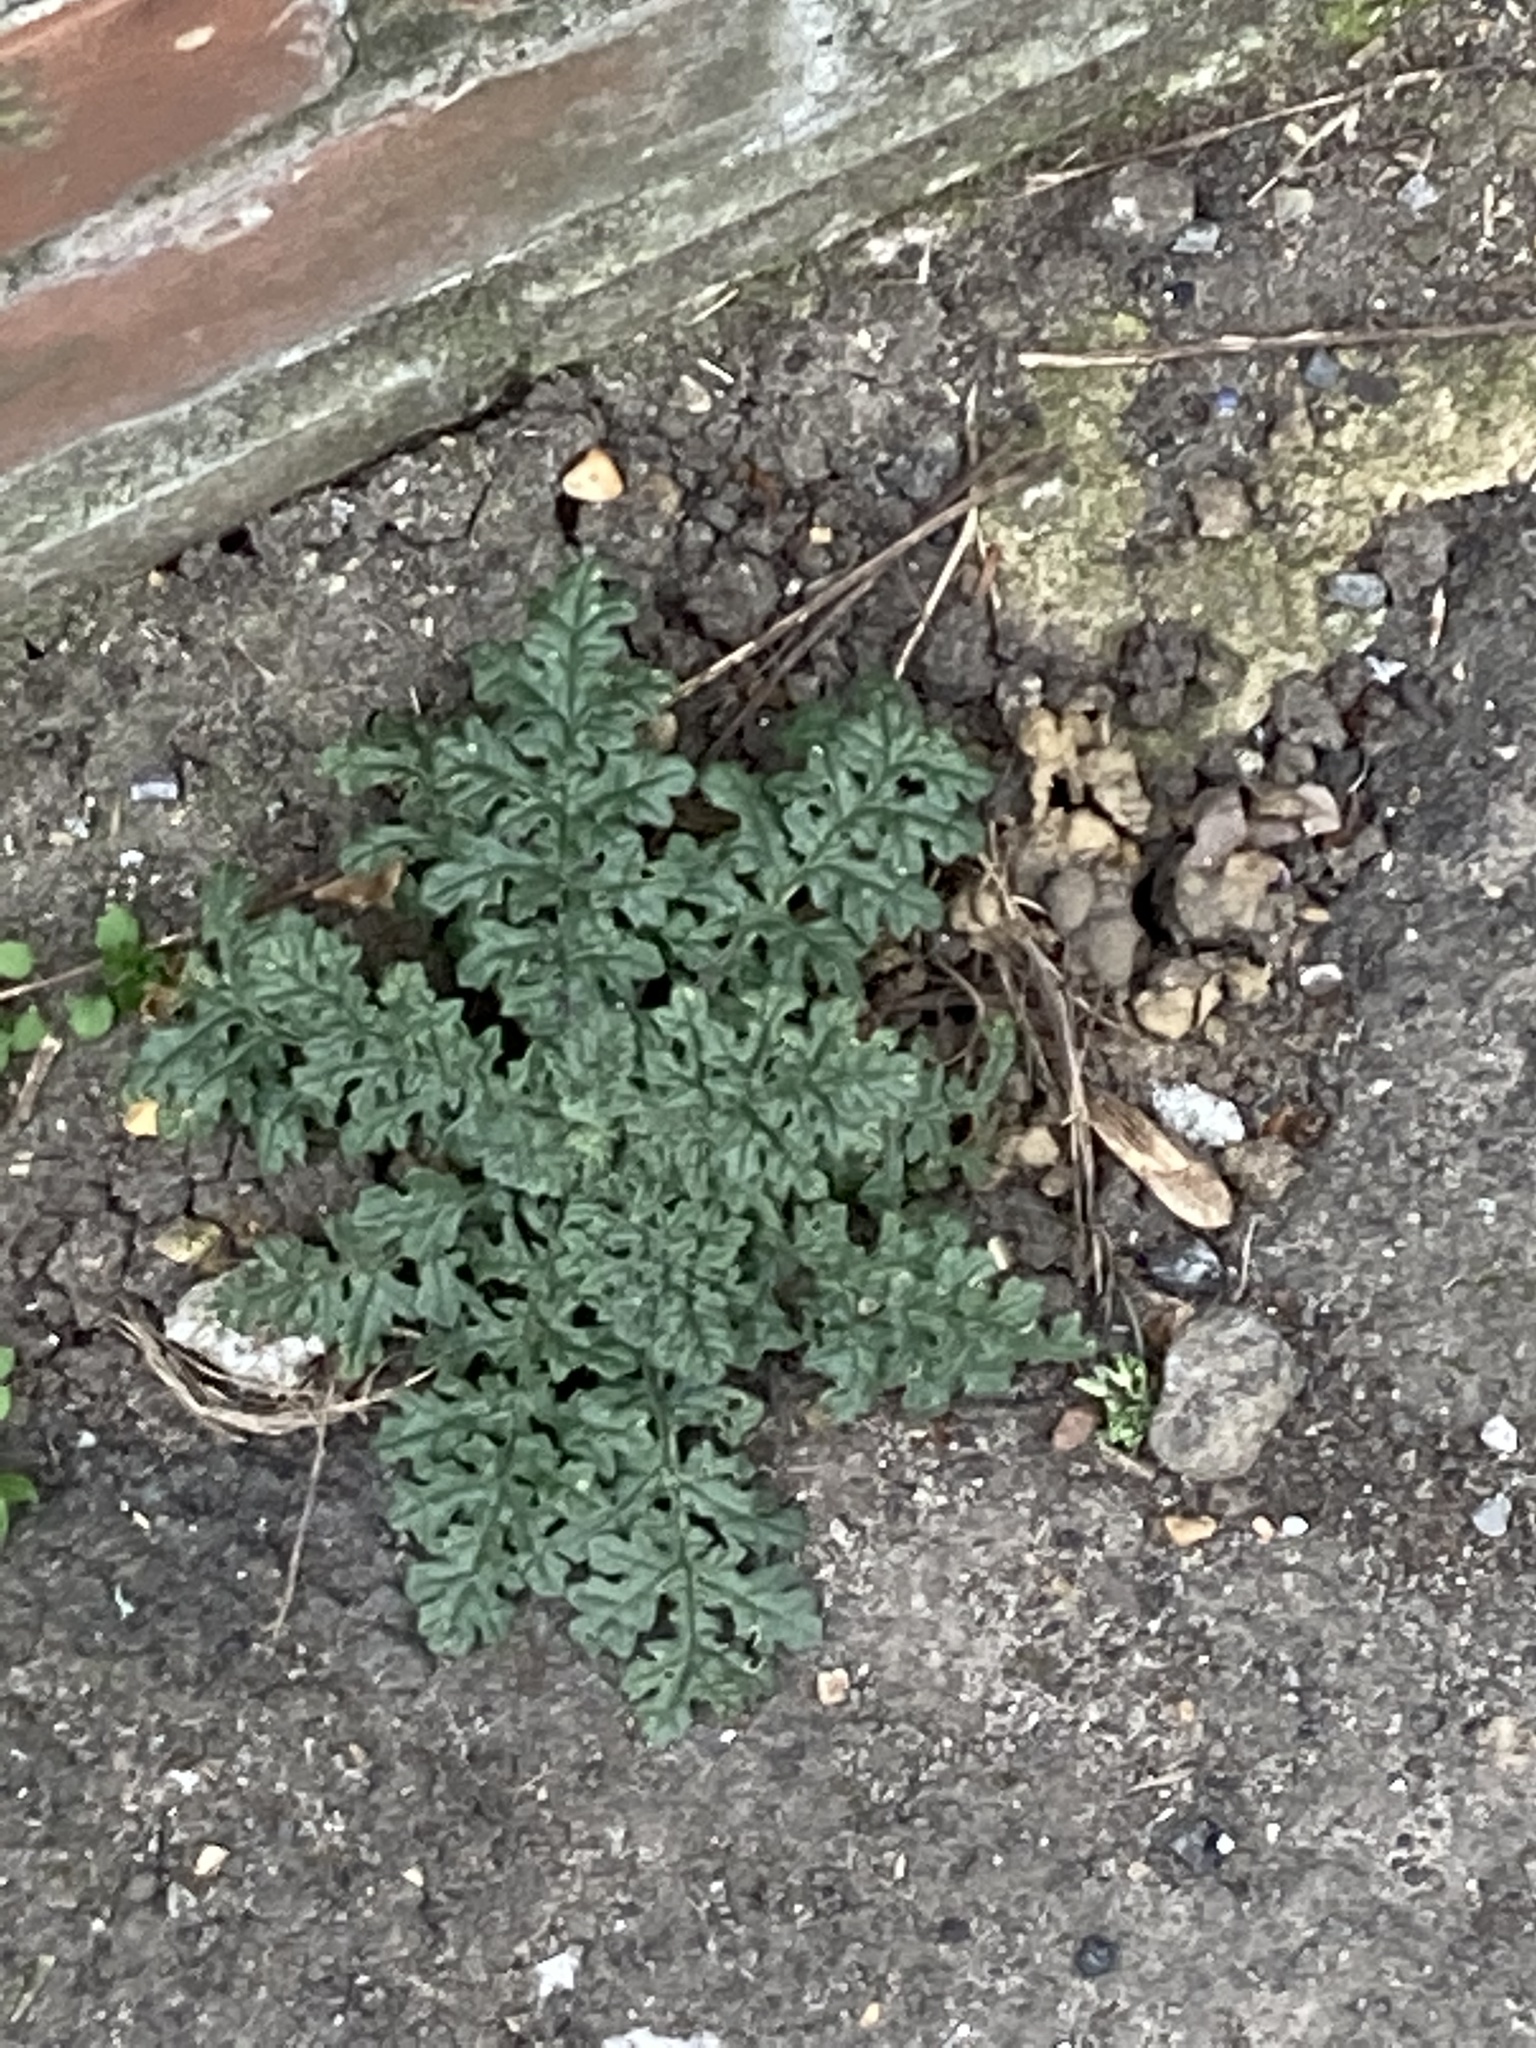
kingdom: Plantae
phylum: Tracheophyta
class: Magnoliopsida
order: Asterales
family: Asteraceae
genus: Jacobaea
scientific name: Jacobaea vulgaris
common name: Stinking willie
